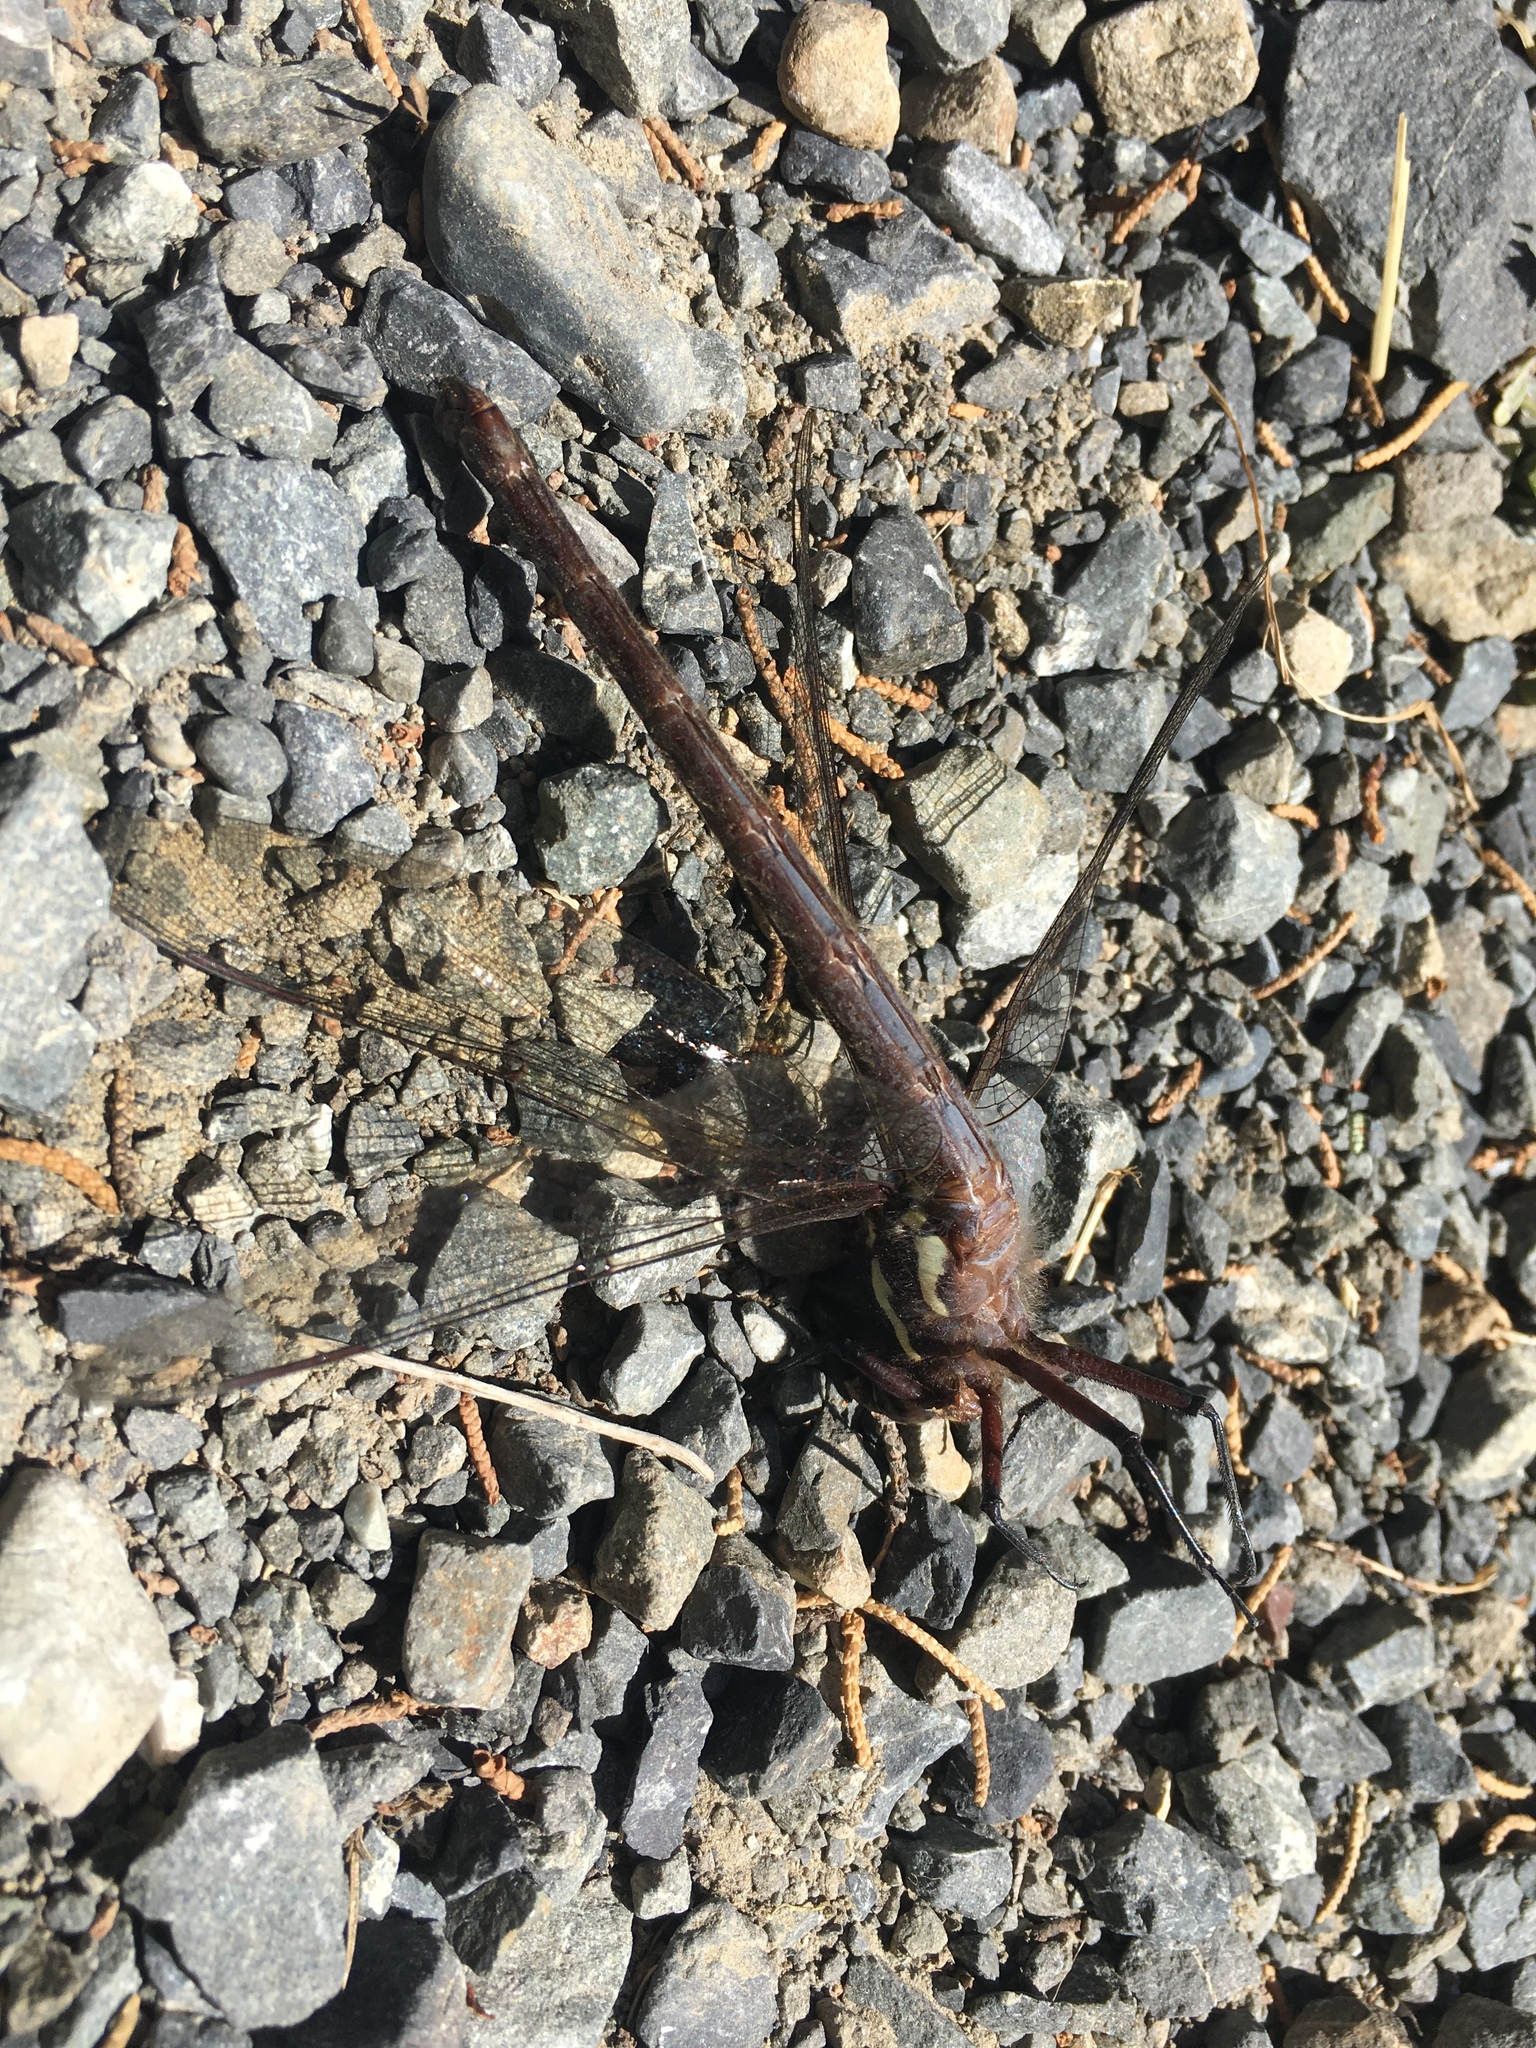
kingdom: Animalia
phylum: Arthropoda
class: Insecta
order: Odonata
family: Petaluridae
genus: Uropetala
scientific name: Uropetala carovei
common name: Bush giant dragonfly
